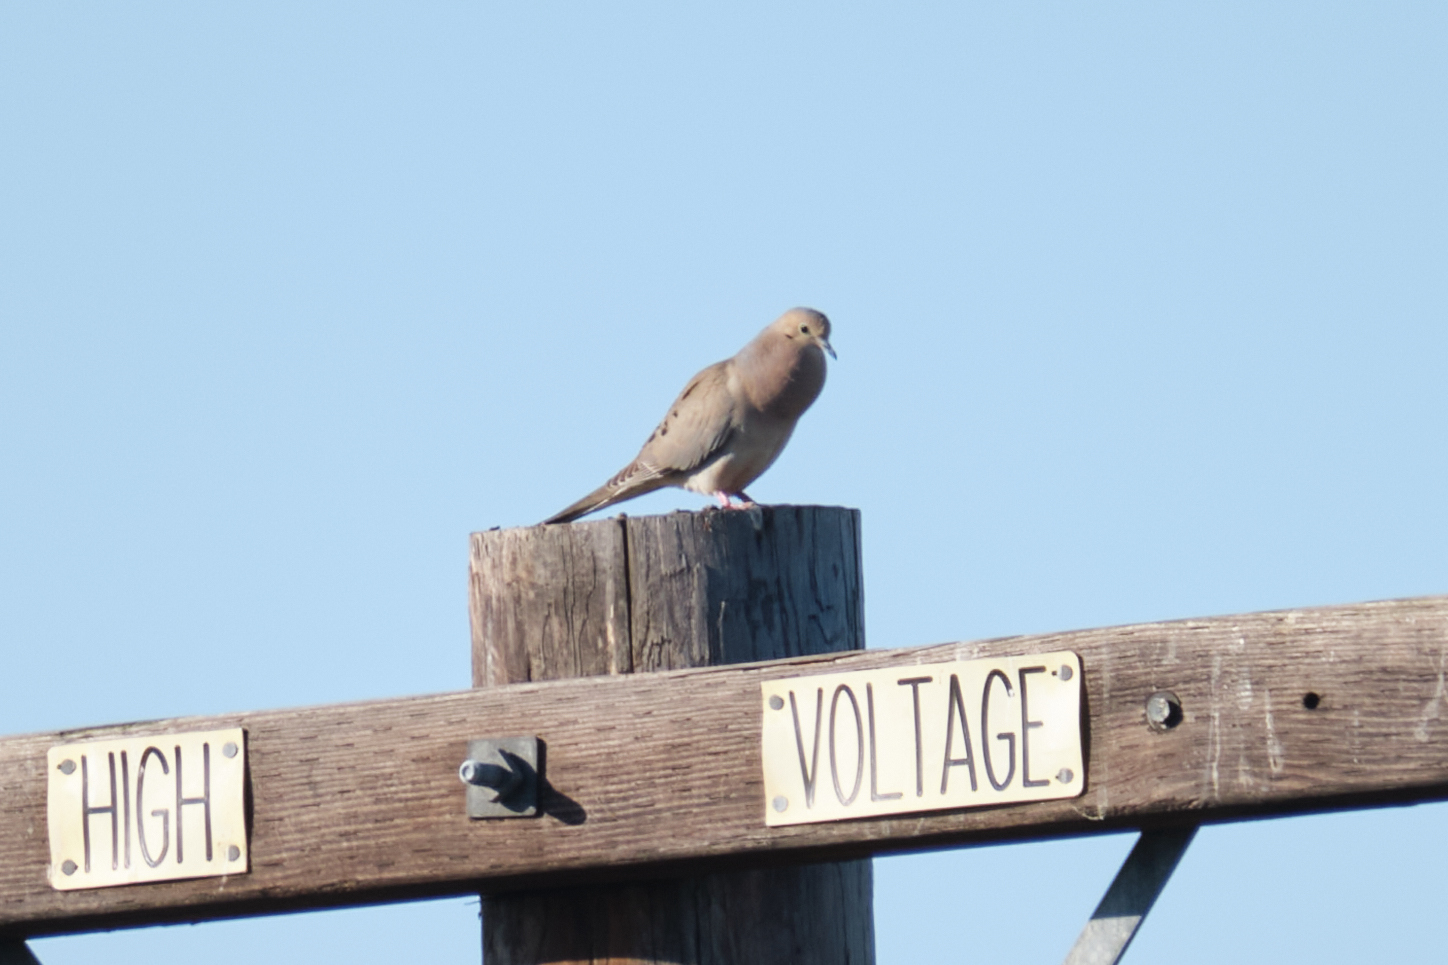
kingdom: Animalia
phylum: Chordata
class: Aves
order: Columbiformes
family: Columbidae
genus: Zenaida
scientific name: Zenaida macroura
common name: Mourning dove
